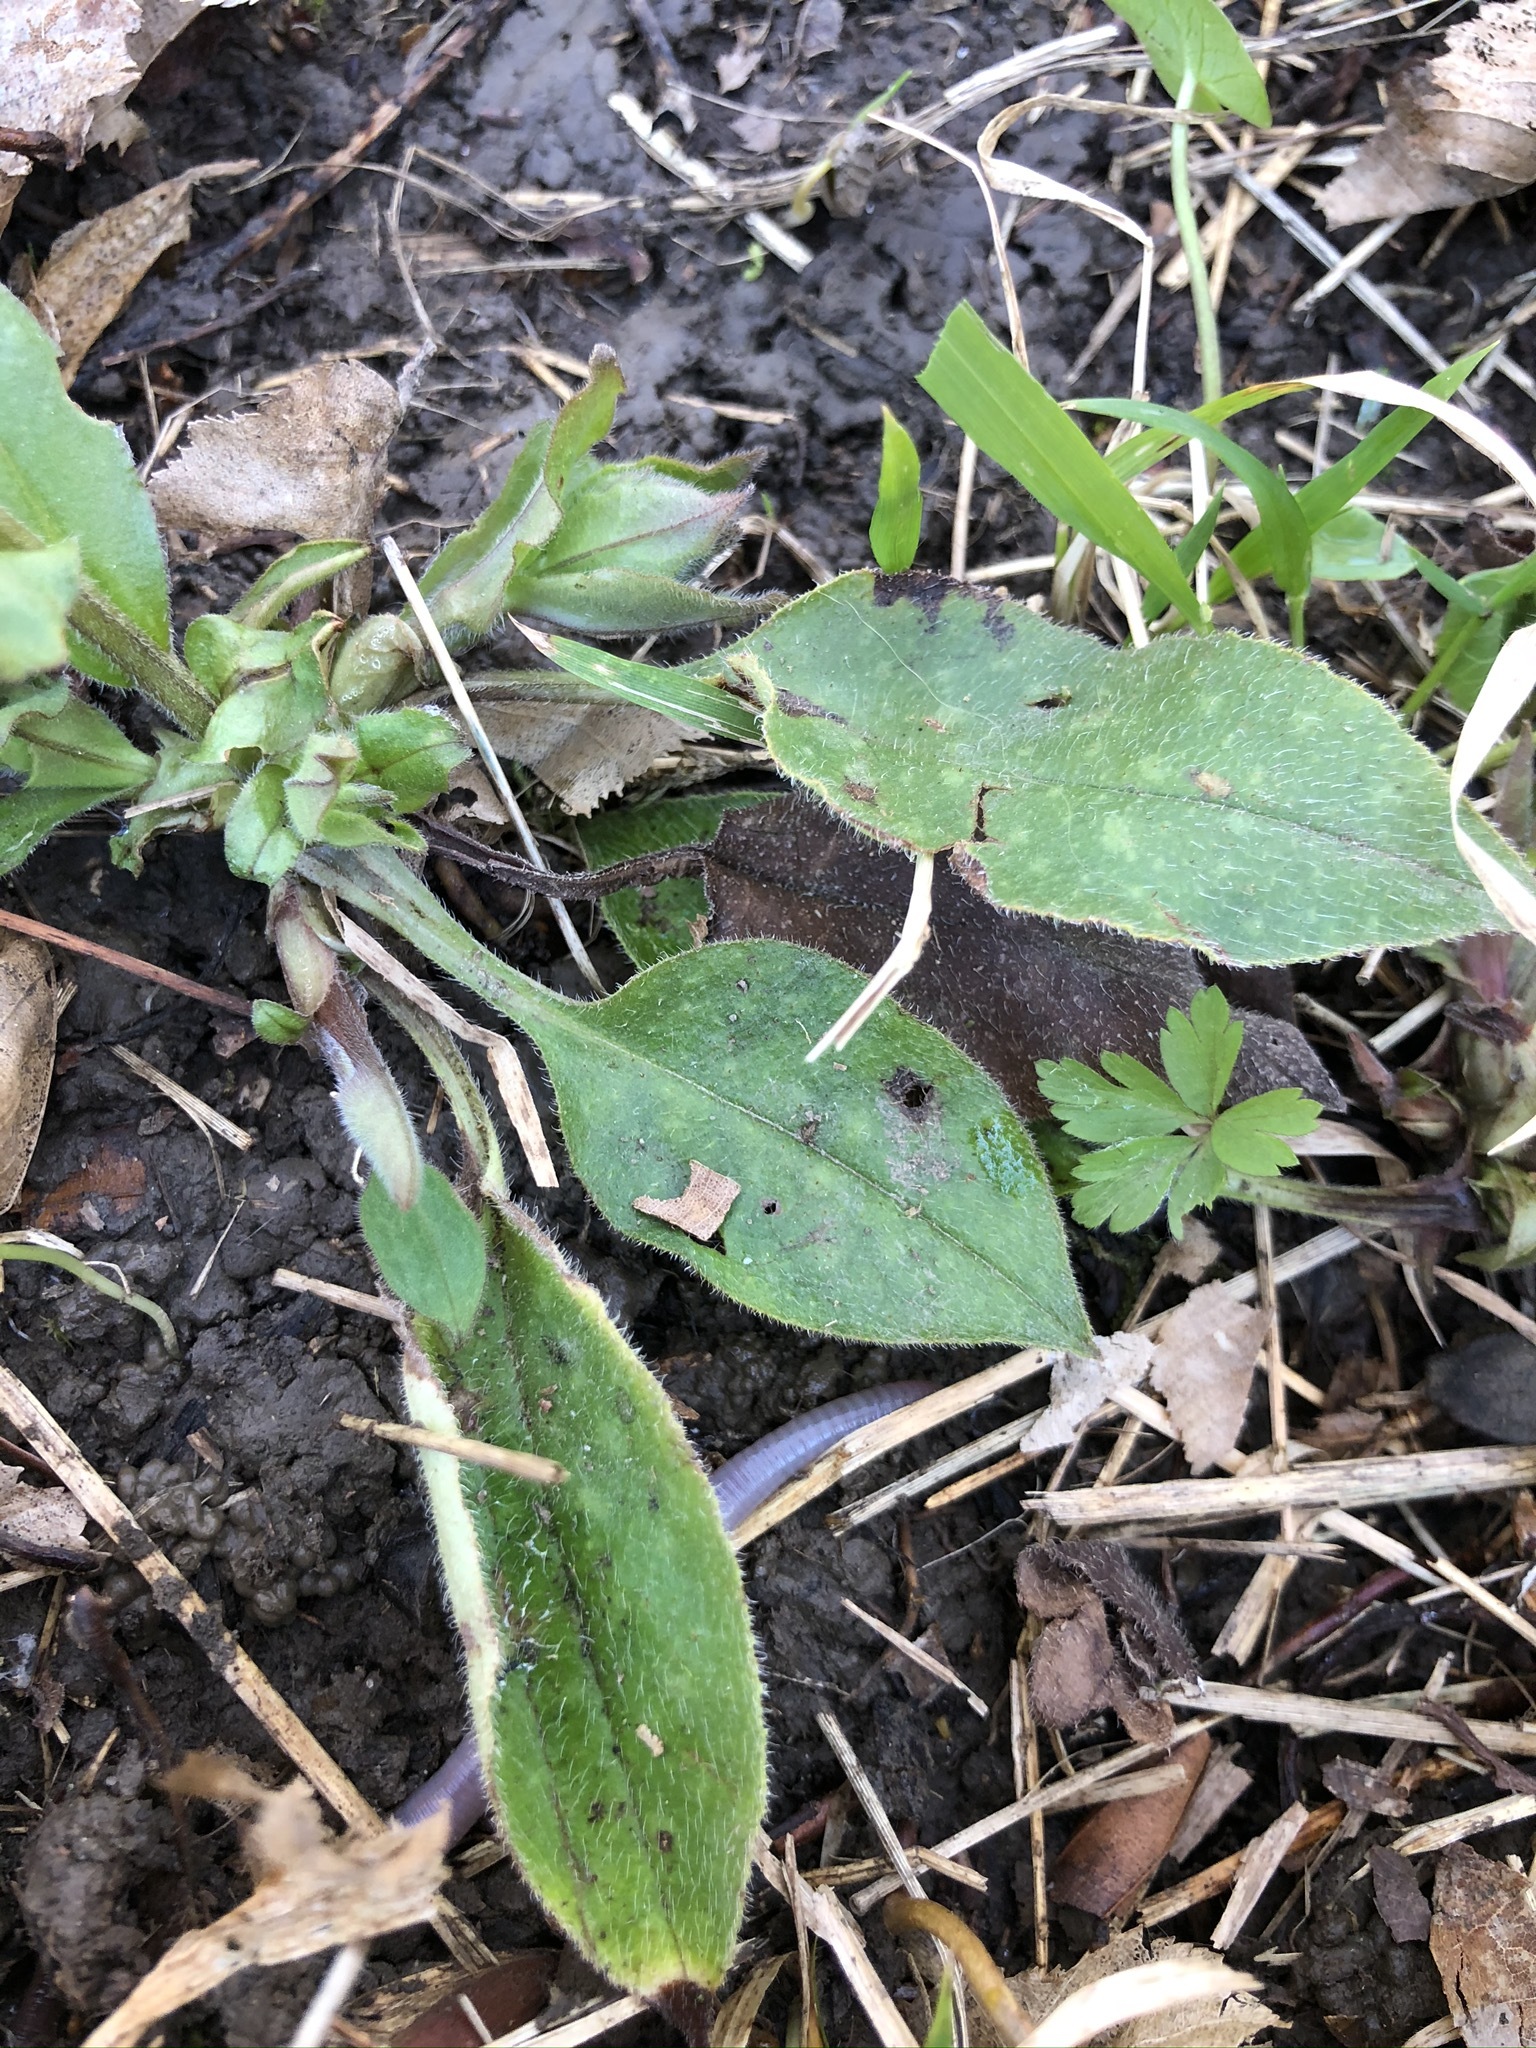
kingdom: Plantae
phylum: Tracheophyta
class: Magnoliopsida
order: Boraginales
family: Boraginaceae
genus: Pulmonaria
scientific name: Pulmonaria officinalis
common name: Lungwort
